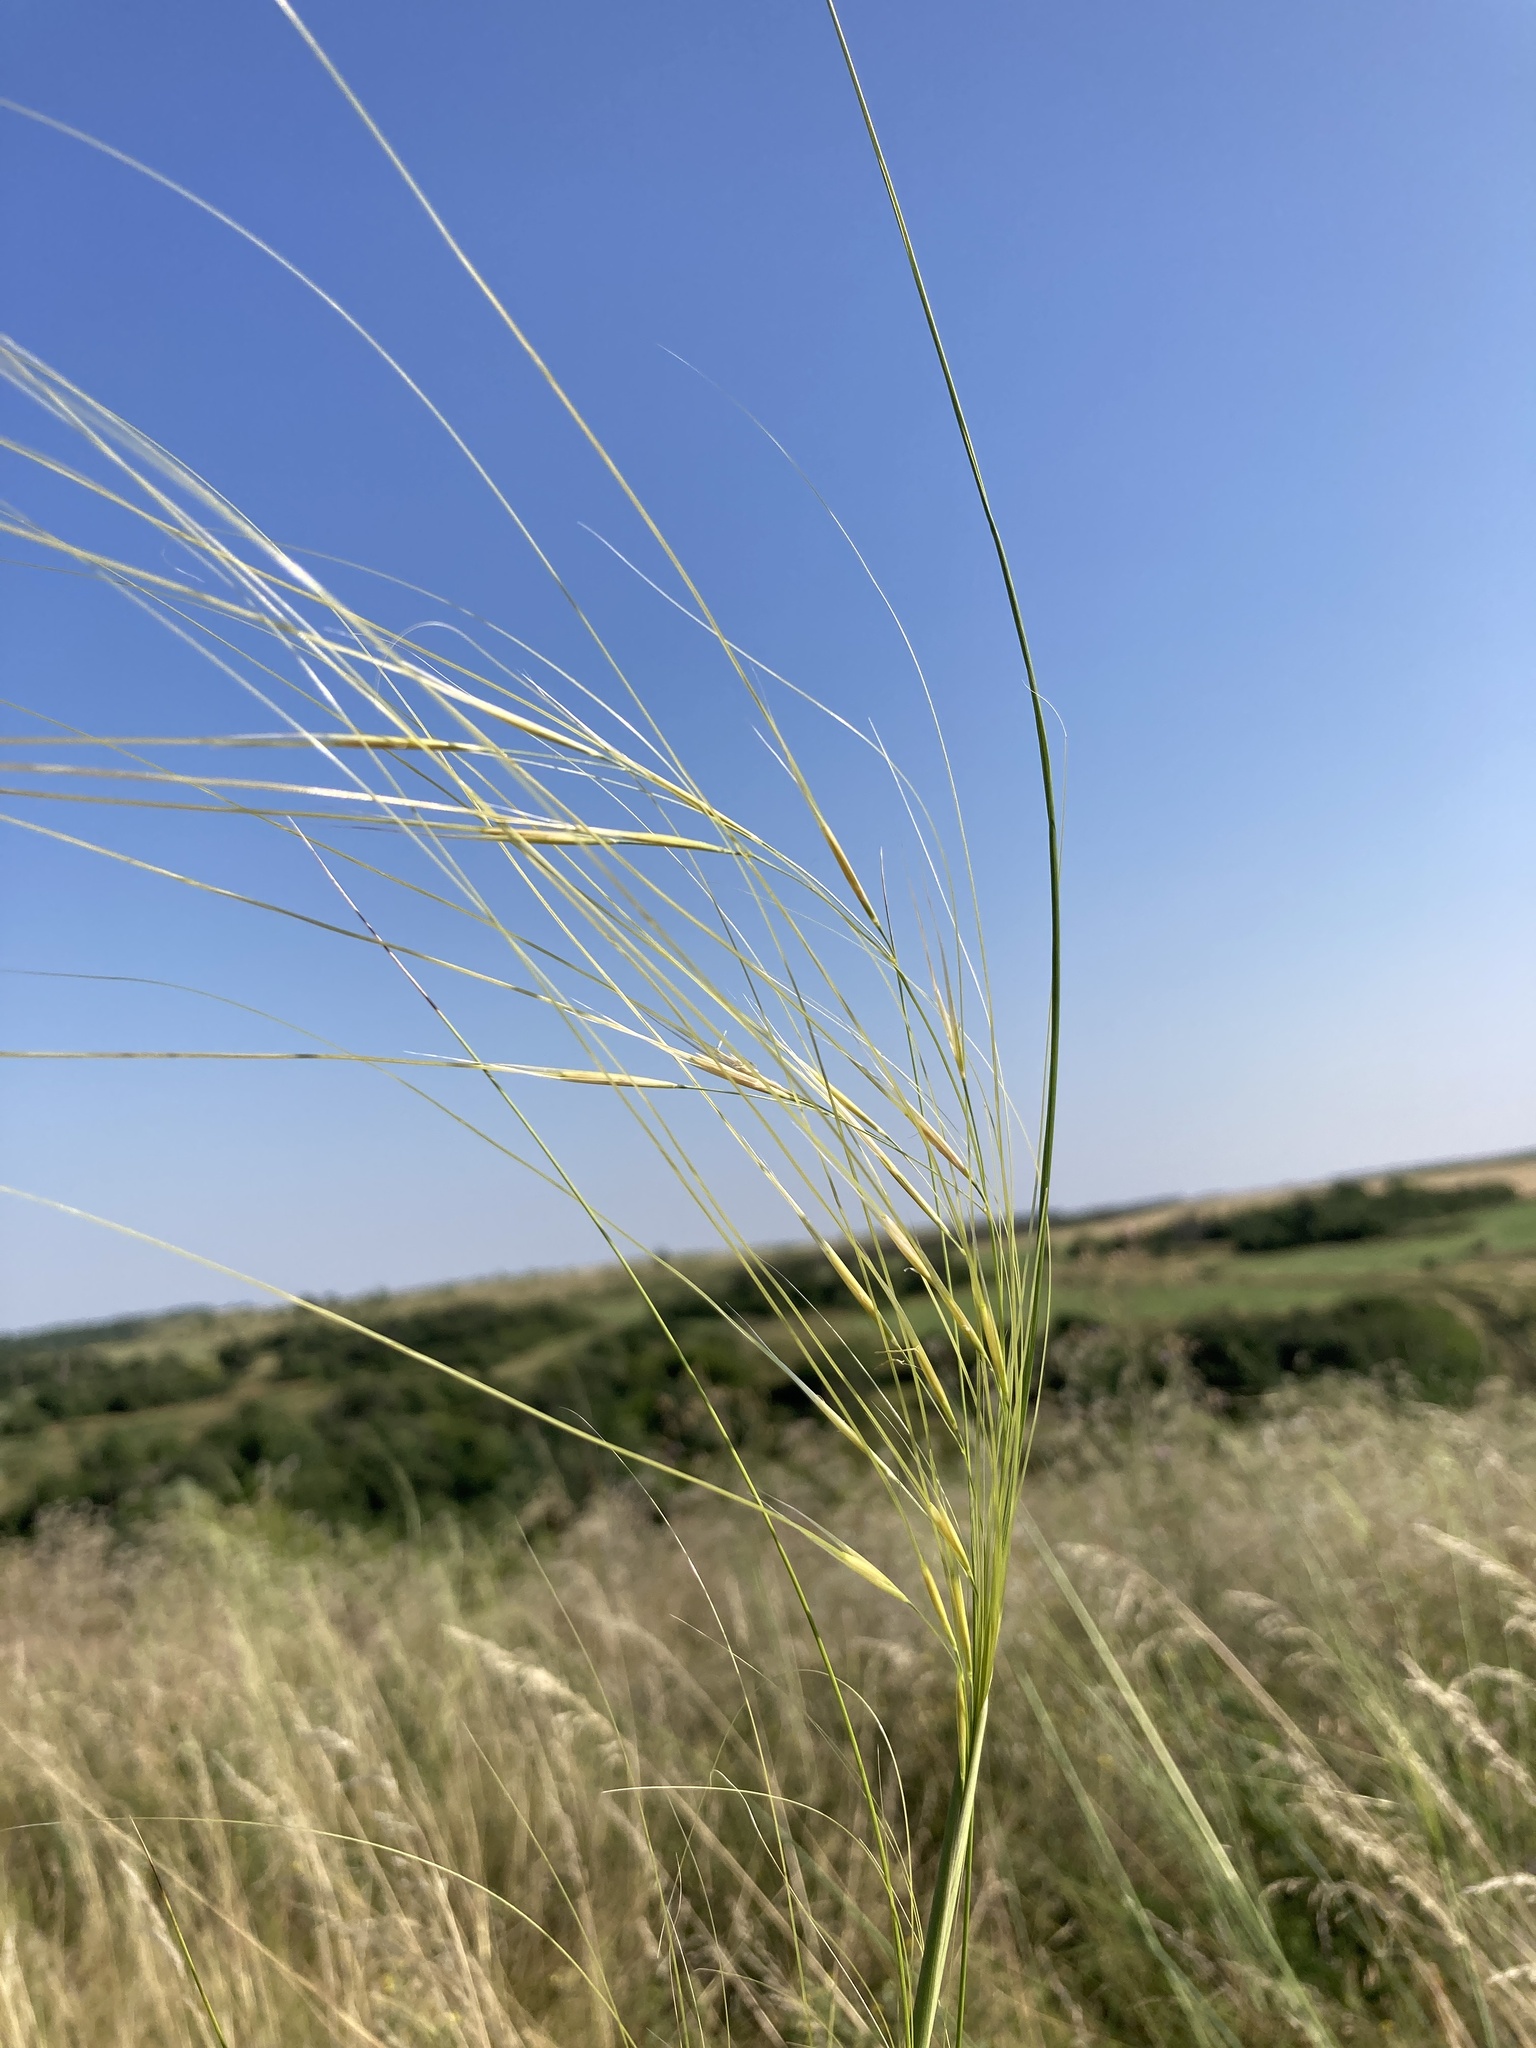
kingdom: Plantae
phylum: Tracheophyta
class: Liliopsida
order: Poales
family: Poaceae
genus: Stipa
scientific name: Stipa capillata
